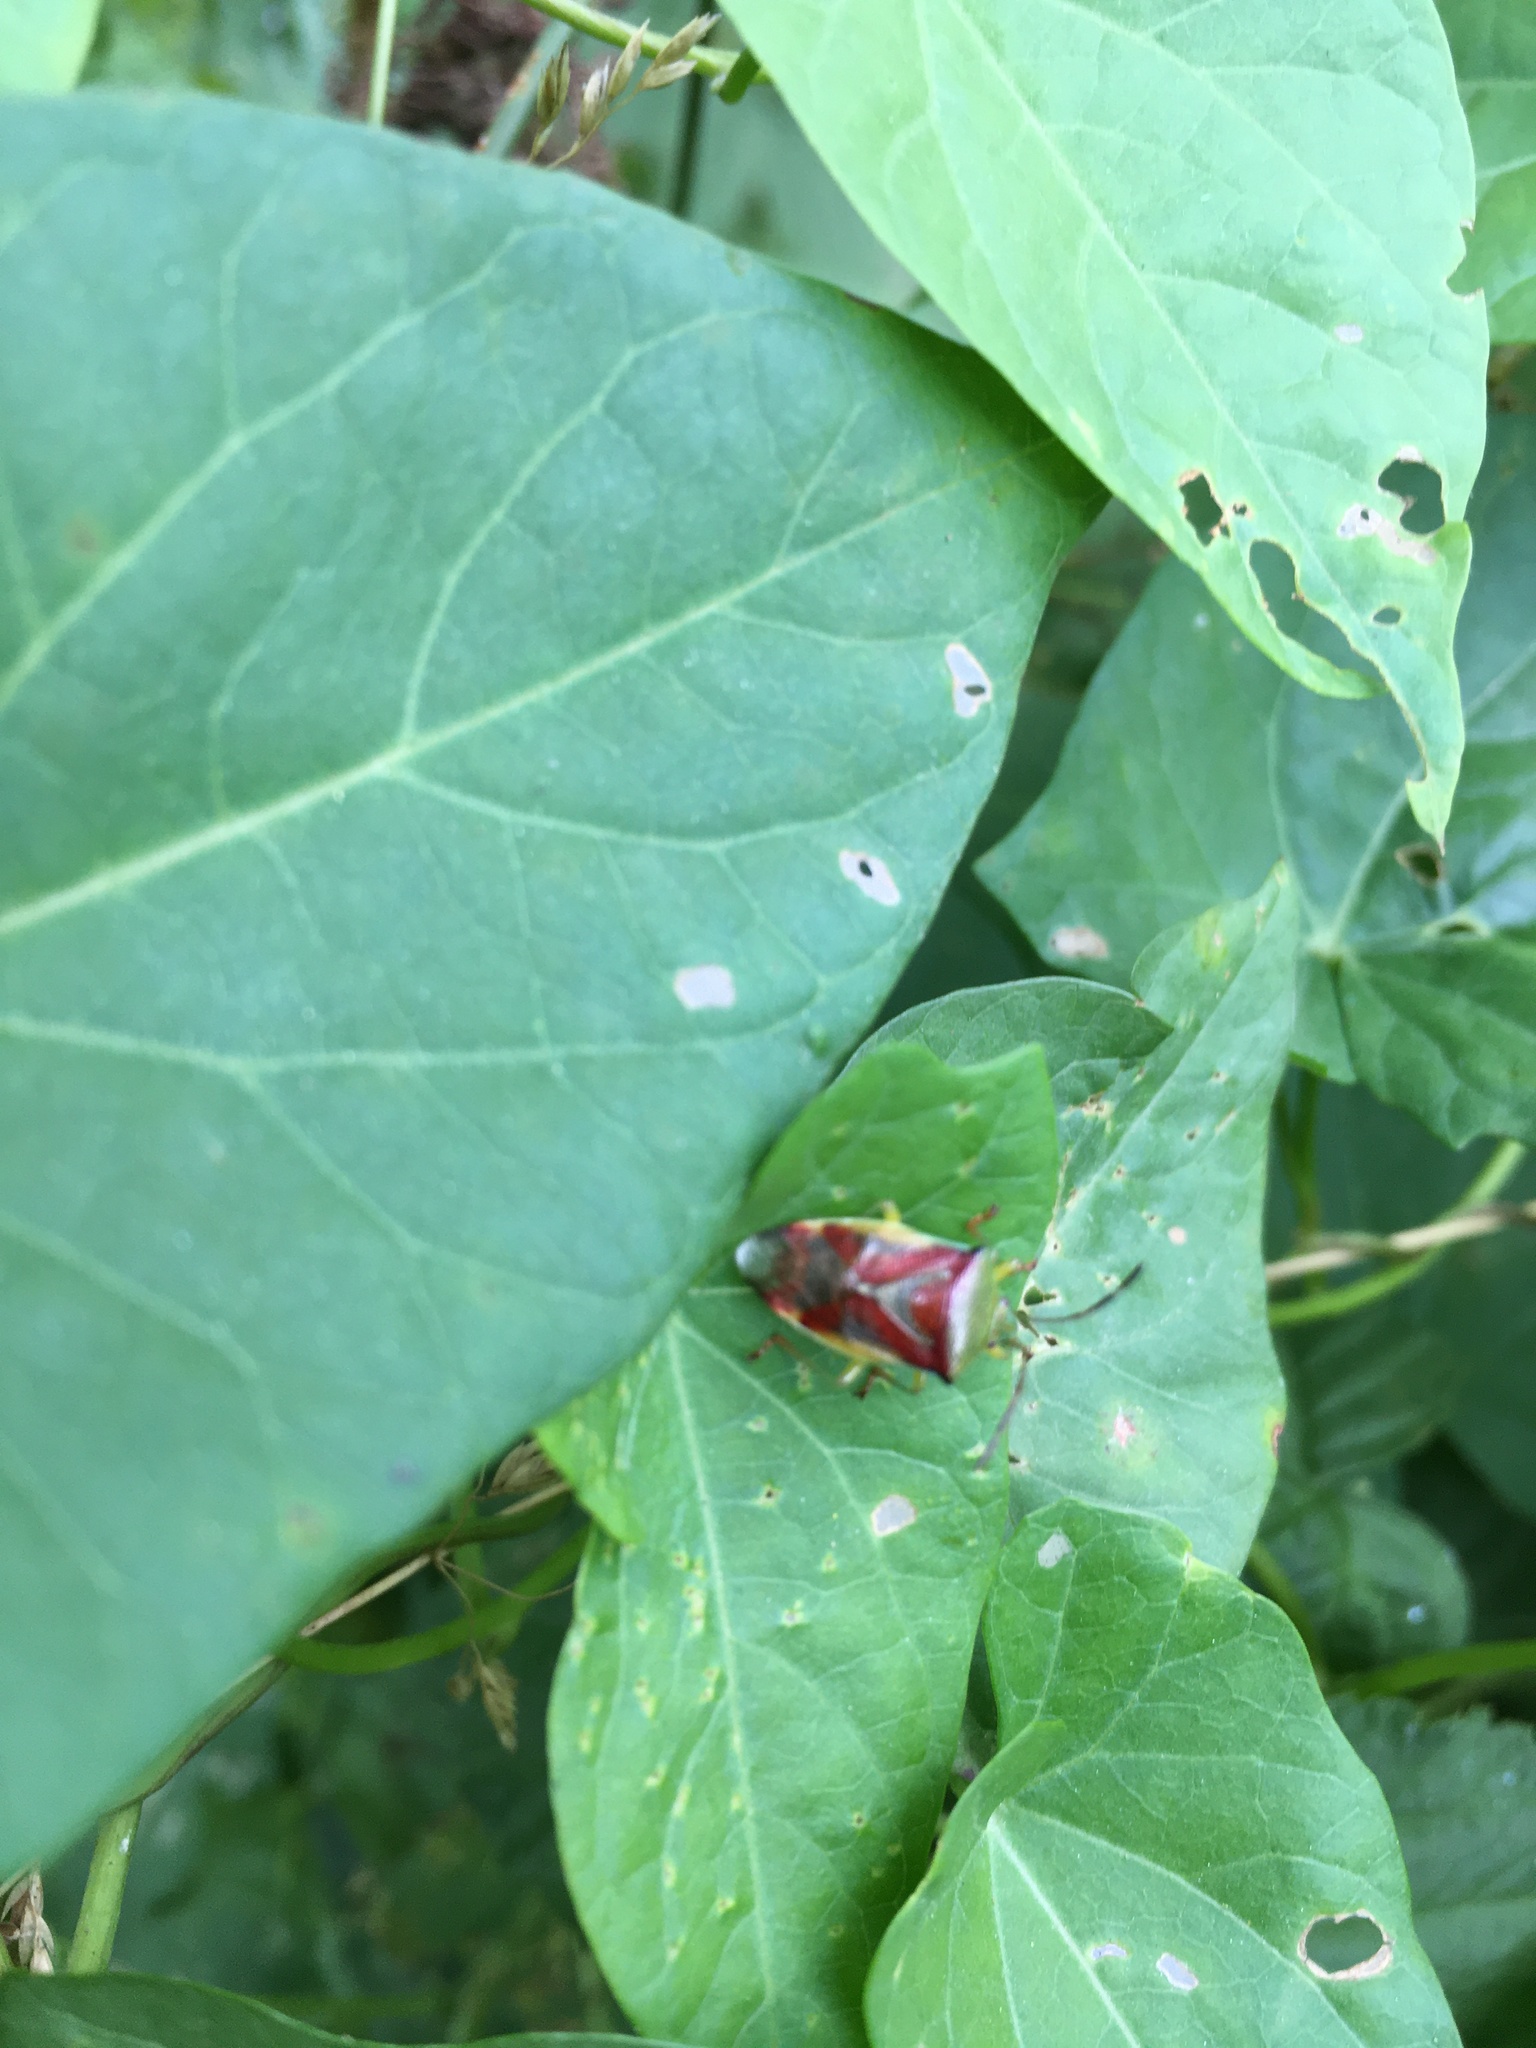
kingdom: Animalia
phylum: Arthropoda
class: Insecta
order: Hemiptera
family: Acanthosomatidae
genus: Elasmostethus
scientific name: Elasmostethus
